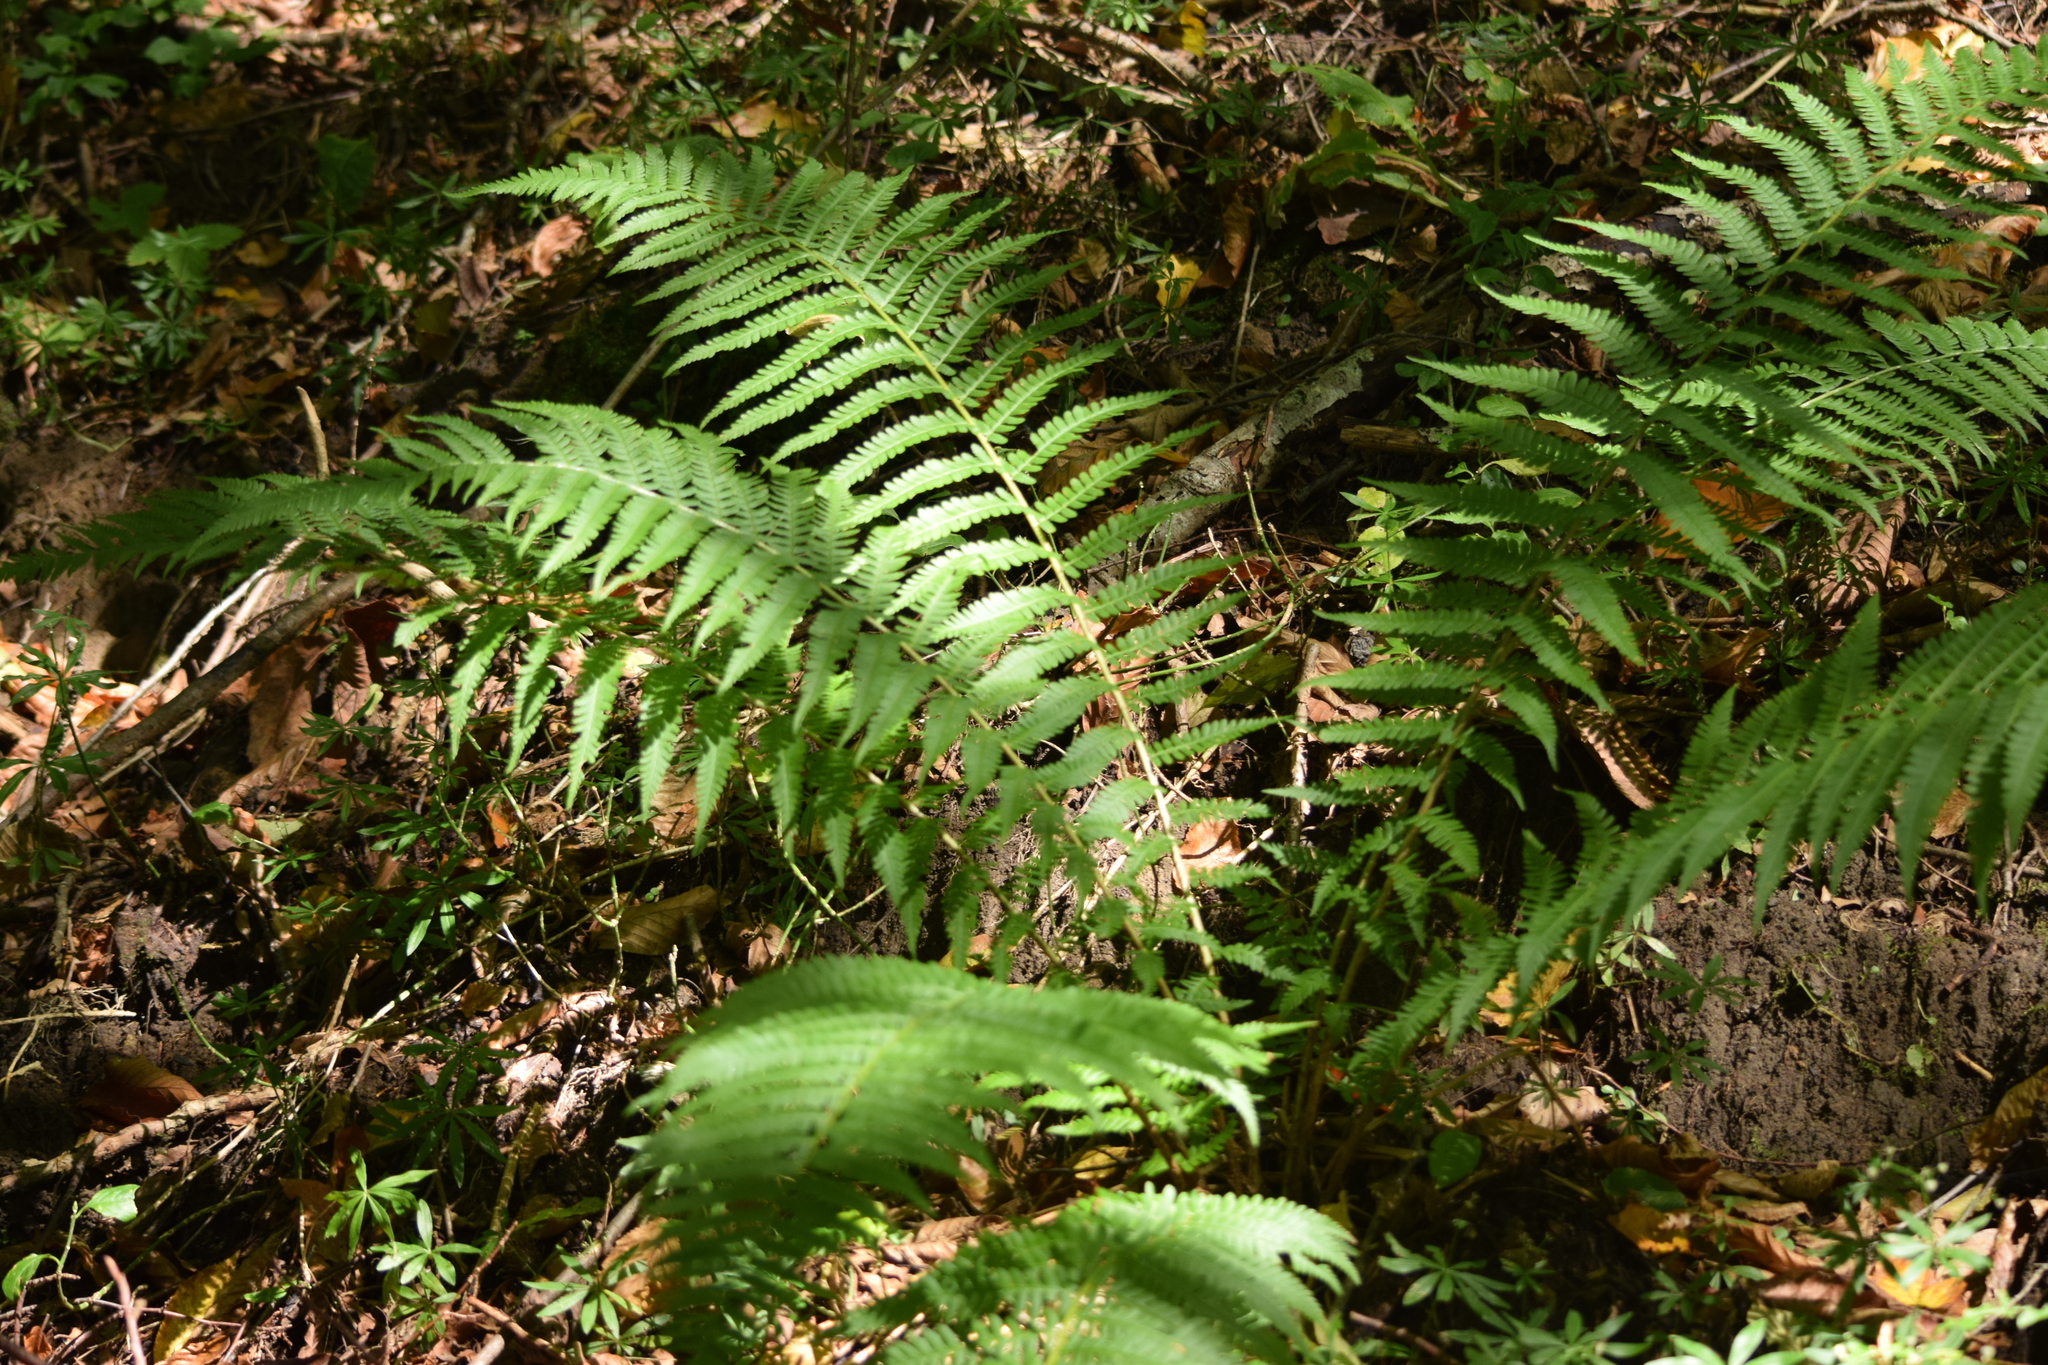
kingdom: Plantae
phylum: Tracheophyta
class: Polypodiopsida
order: Polypodiales
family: Dryopteridaceae
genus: Dryopteris
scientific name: Dryopteris filix-mas
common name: Male fern
